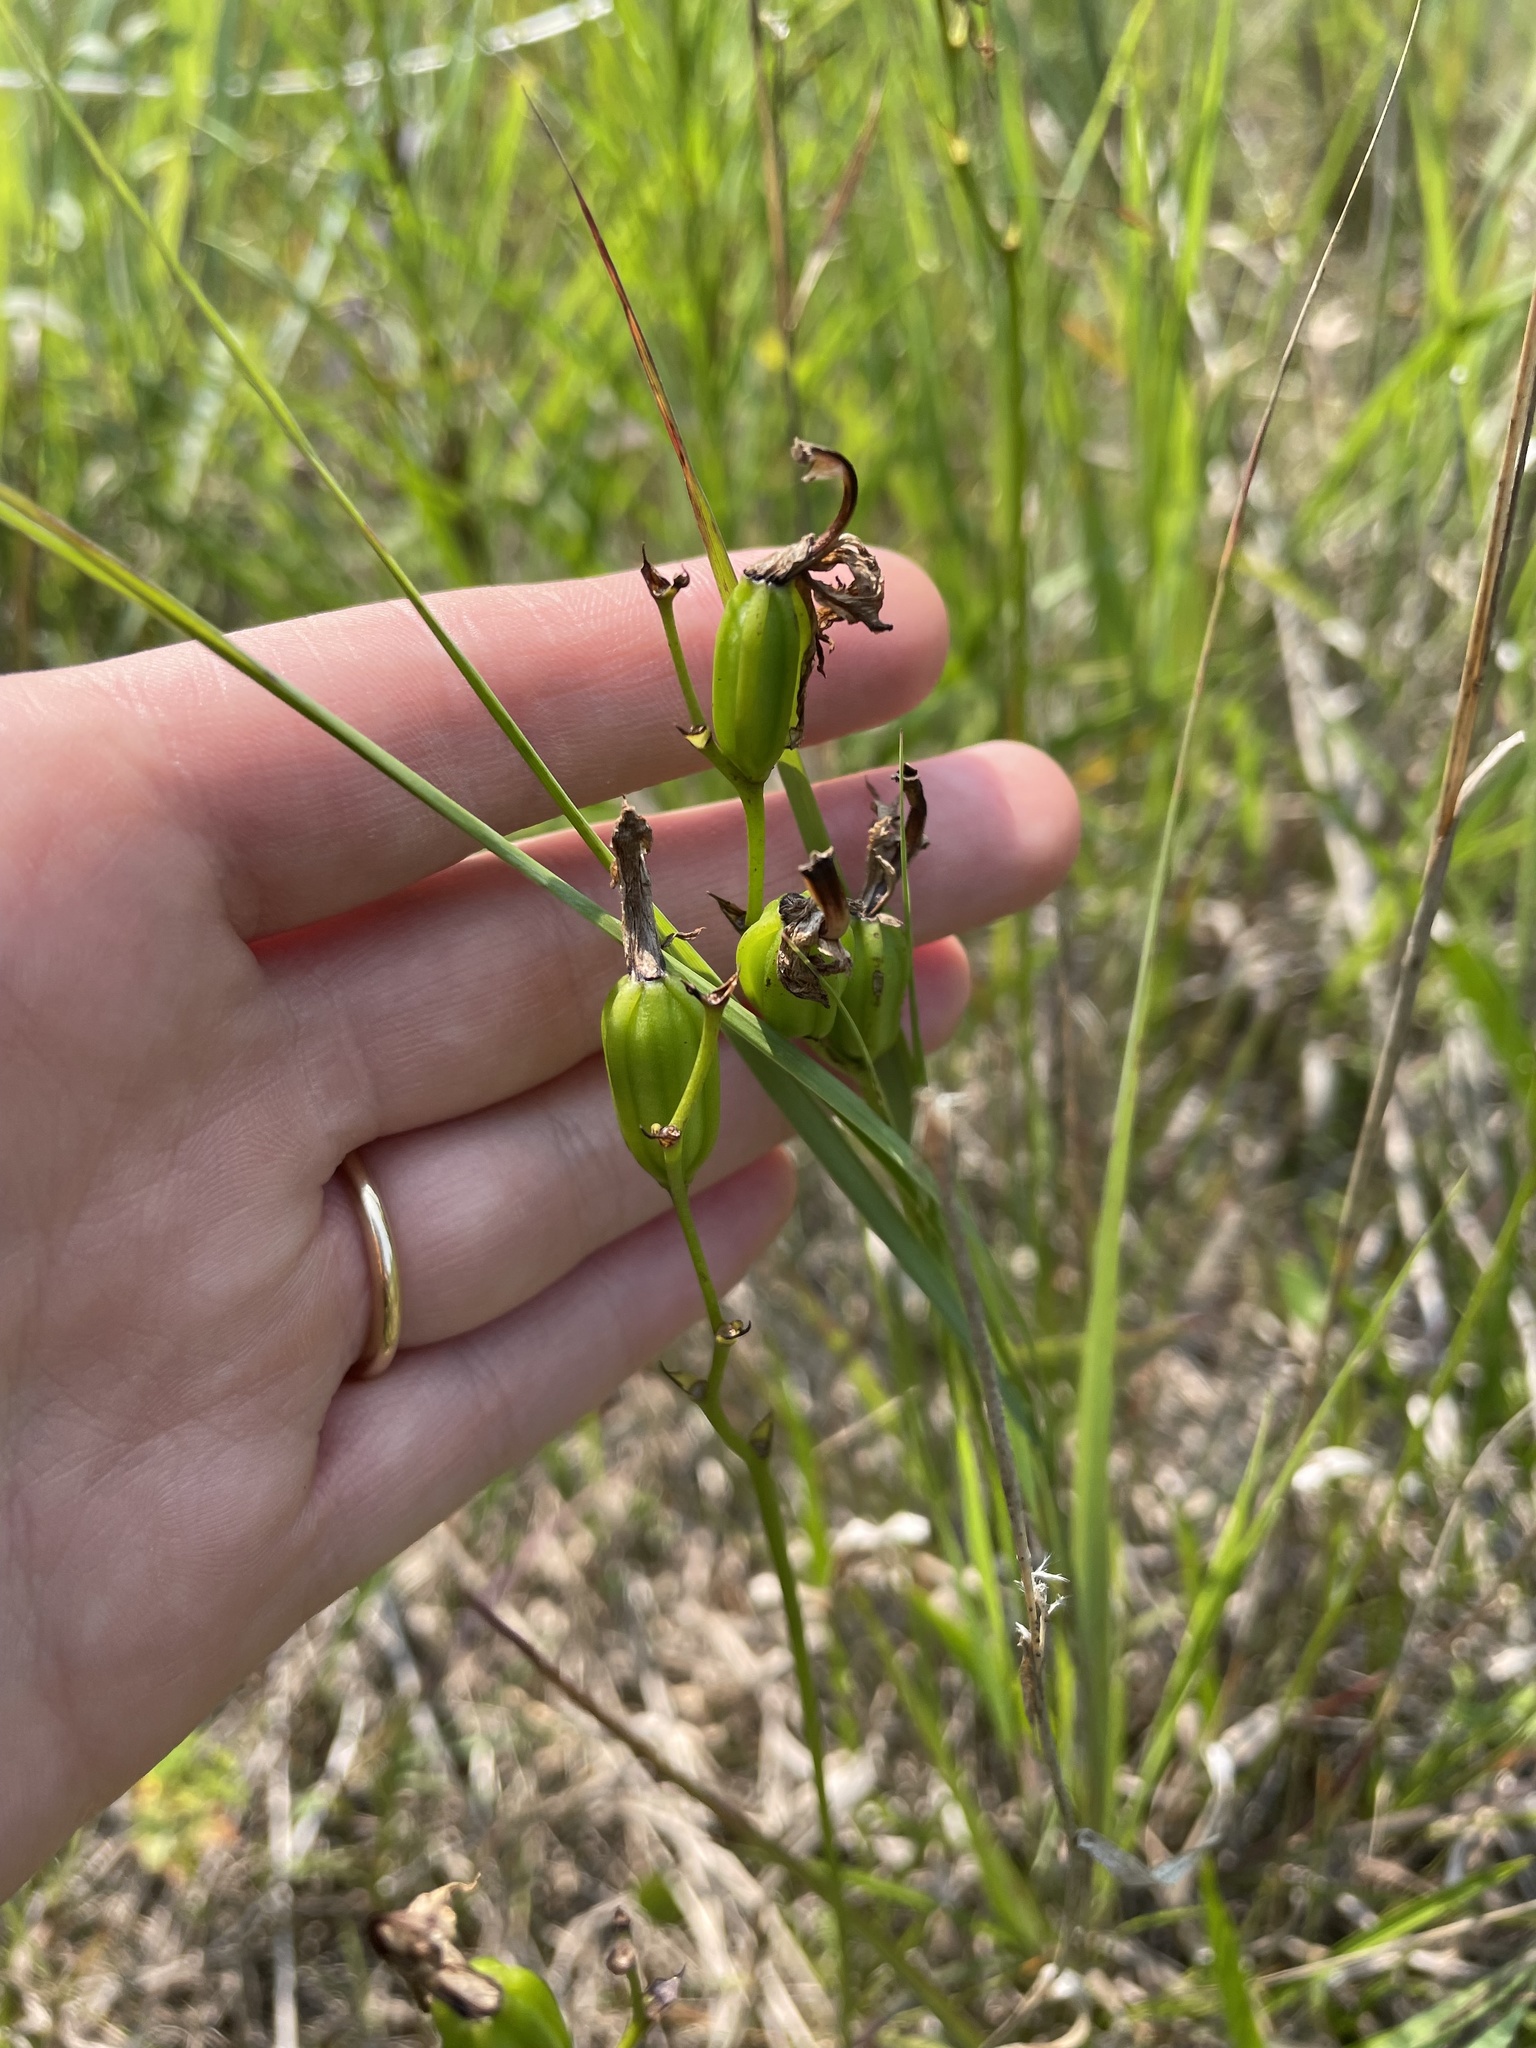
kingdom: Plantae
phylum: Tracheophyta
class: Liliopsida
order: Asparagales
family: Orchidaceae
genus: Calopogon
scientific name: Calopogon tuberosus
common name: Grass-pink
